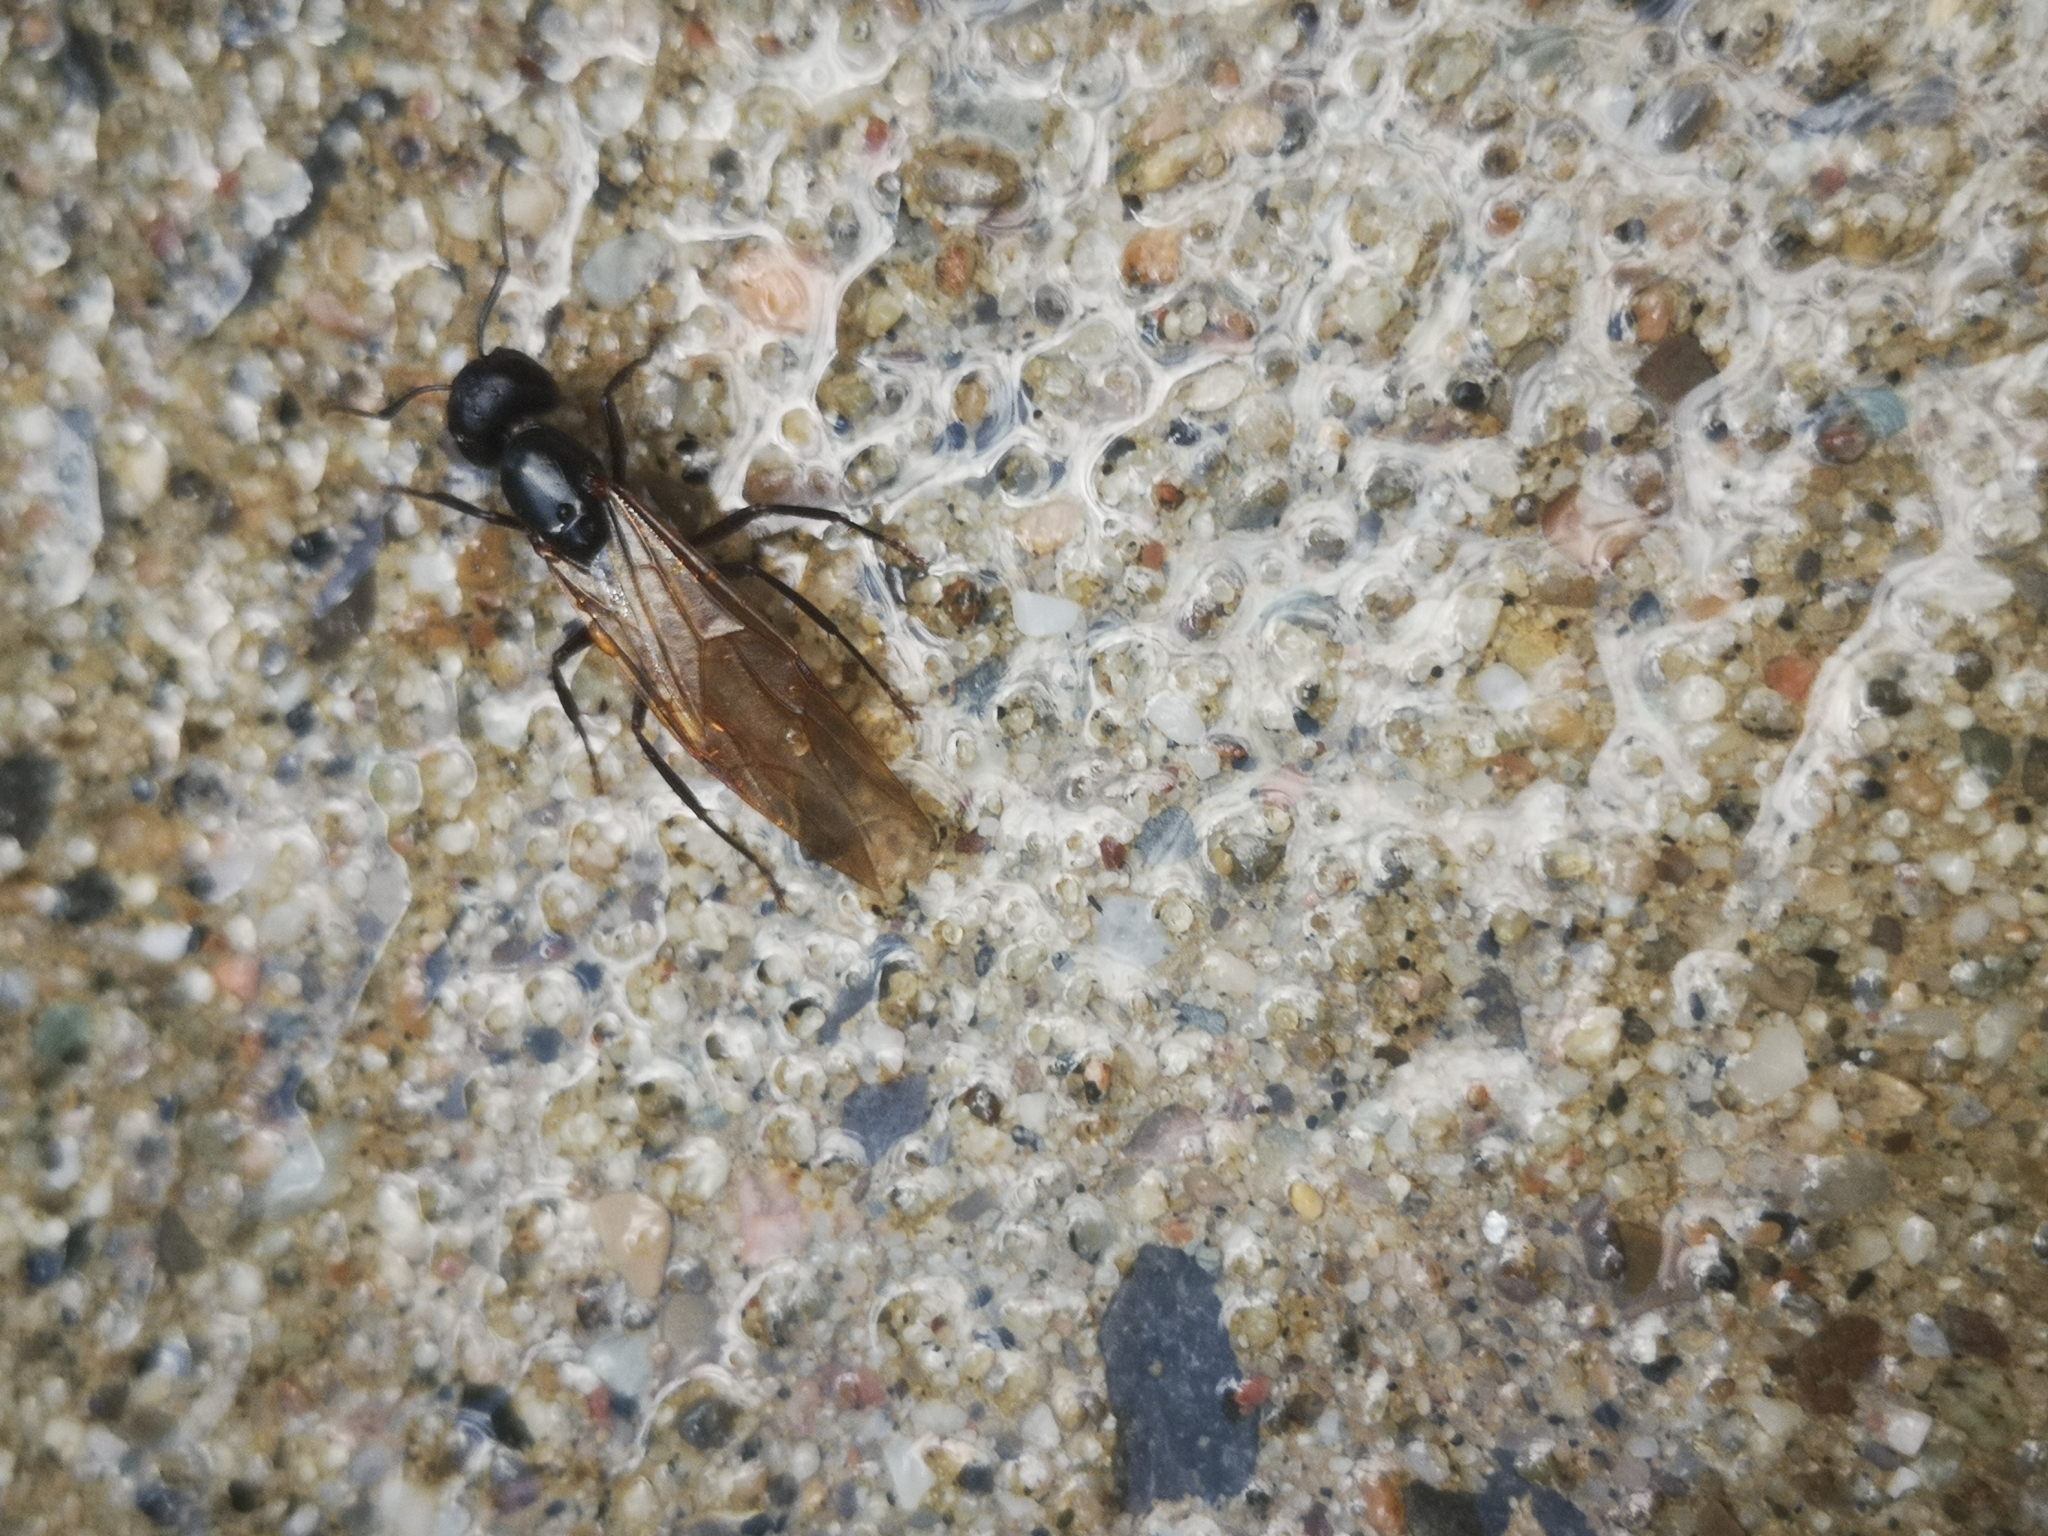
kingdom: Animalia
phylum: Arthropoda
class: Insecta
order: Hymenoptera
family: Formicidae
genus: Camponotus
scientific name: Camponotus pennsylvanicus
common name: Black carpenter ant
